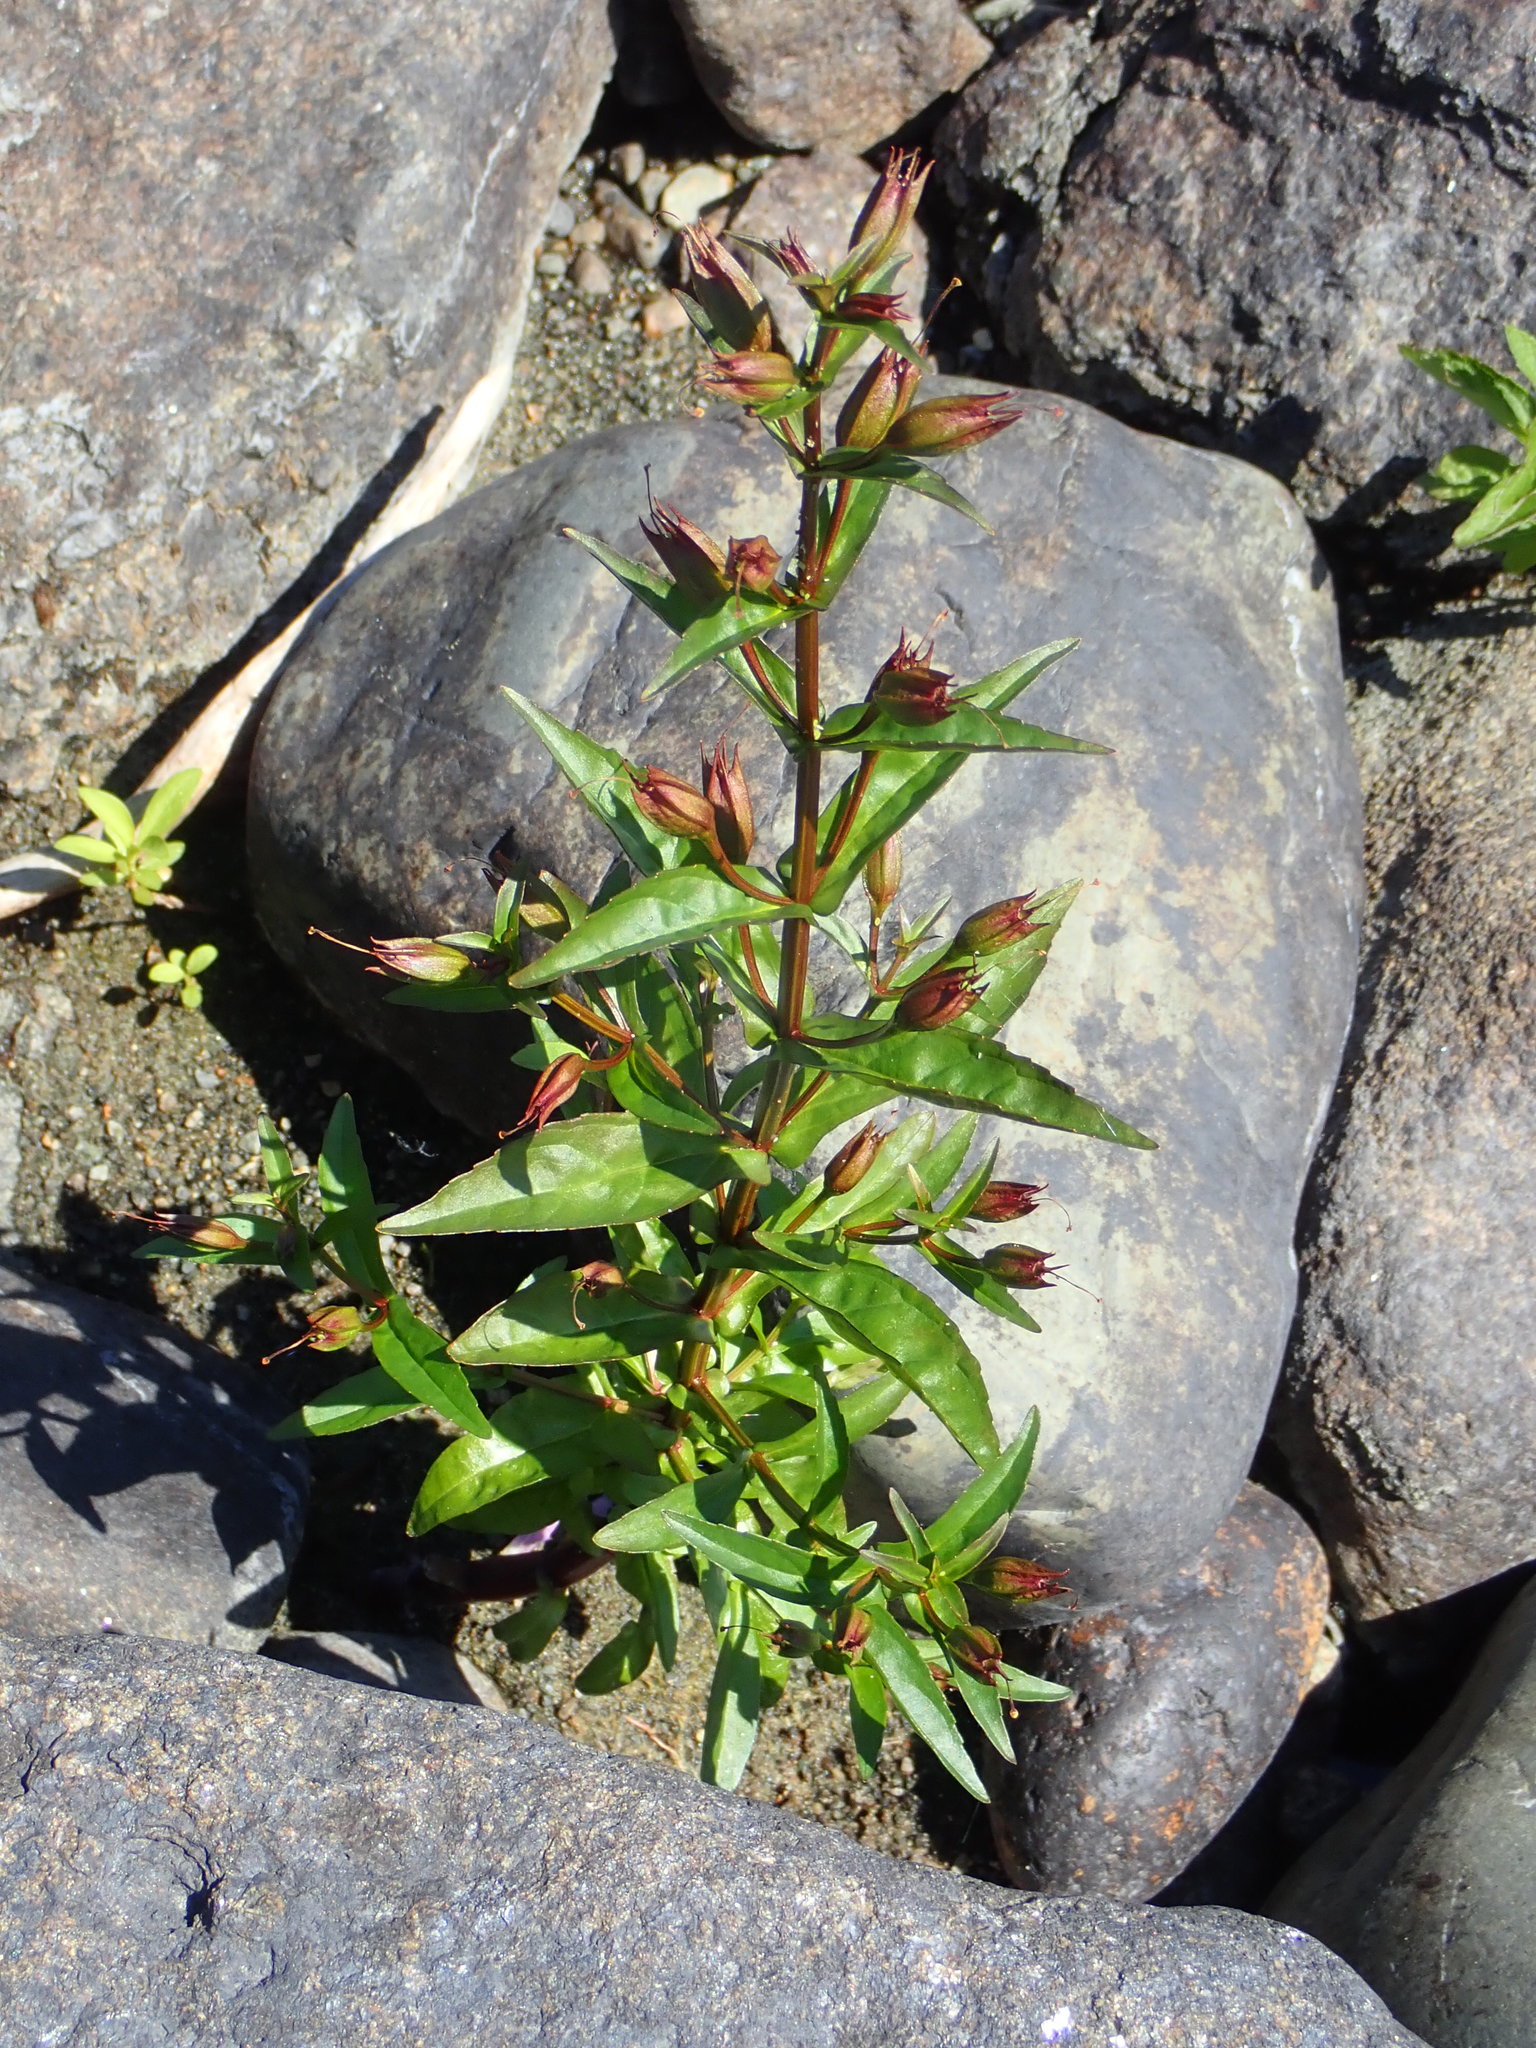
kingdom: Plantae
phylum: Tracheophyta
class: Magnoliopsida
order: Lamiales
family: Phrymaceae
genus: Mimulus
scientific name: Mimulus ringens
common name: Allegheny monkeyflower
